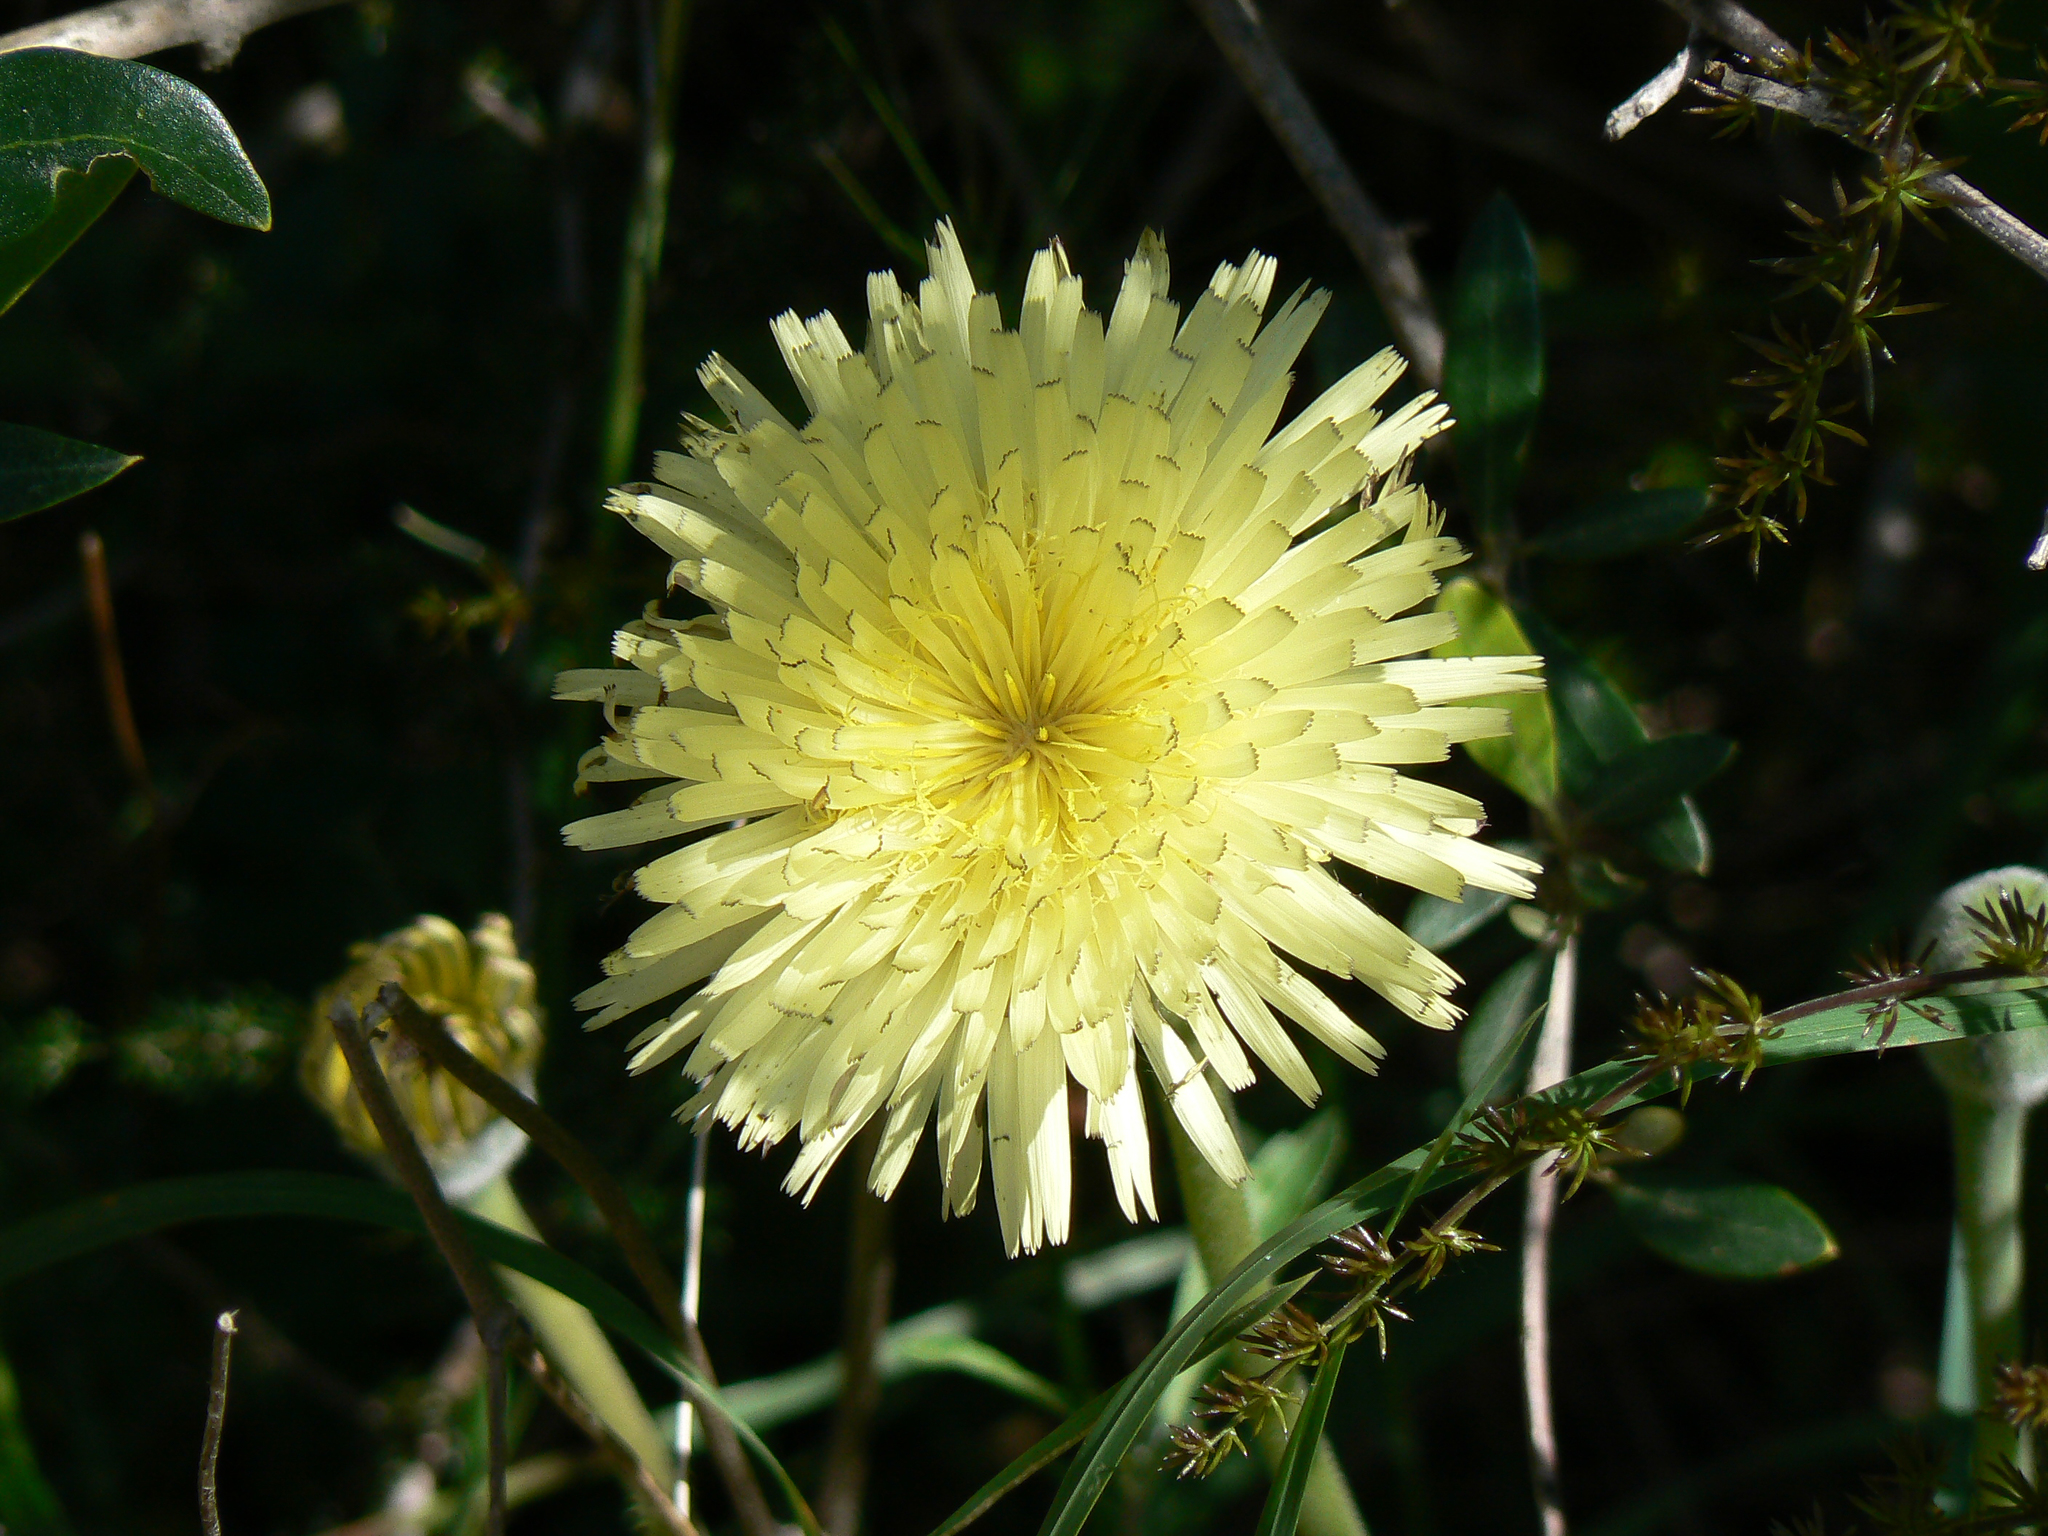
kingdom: Plantae
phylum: Tracheophyta
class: Magnoliopsida
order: Asterales
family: Asteraceae
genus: Urospermum
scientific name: Urospermum dalechampii
